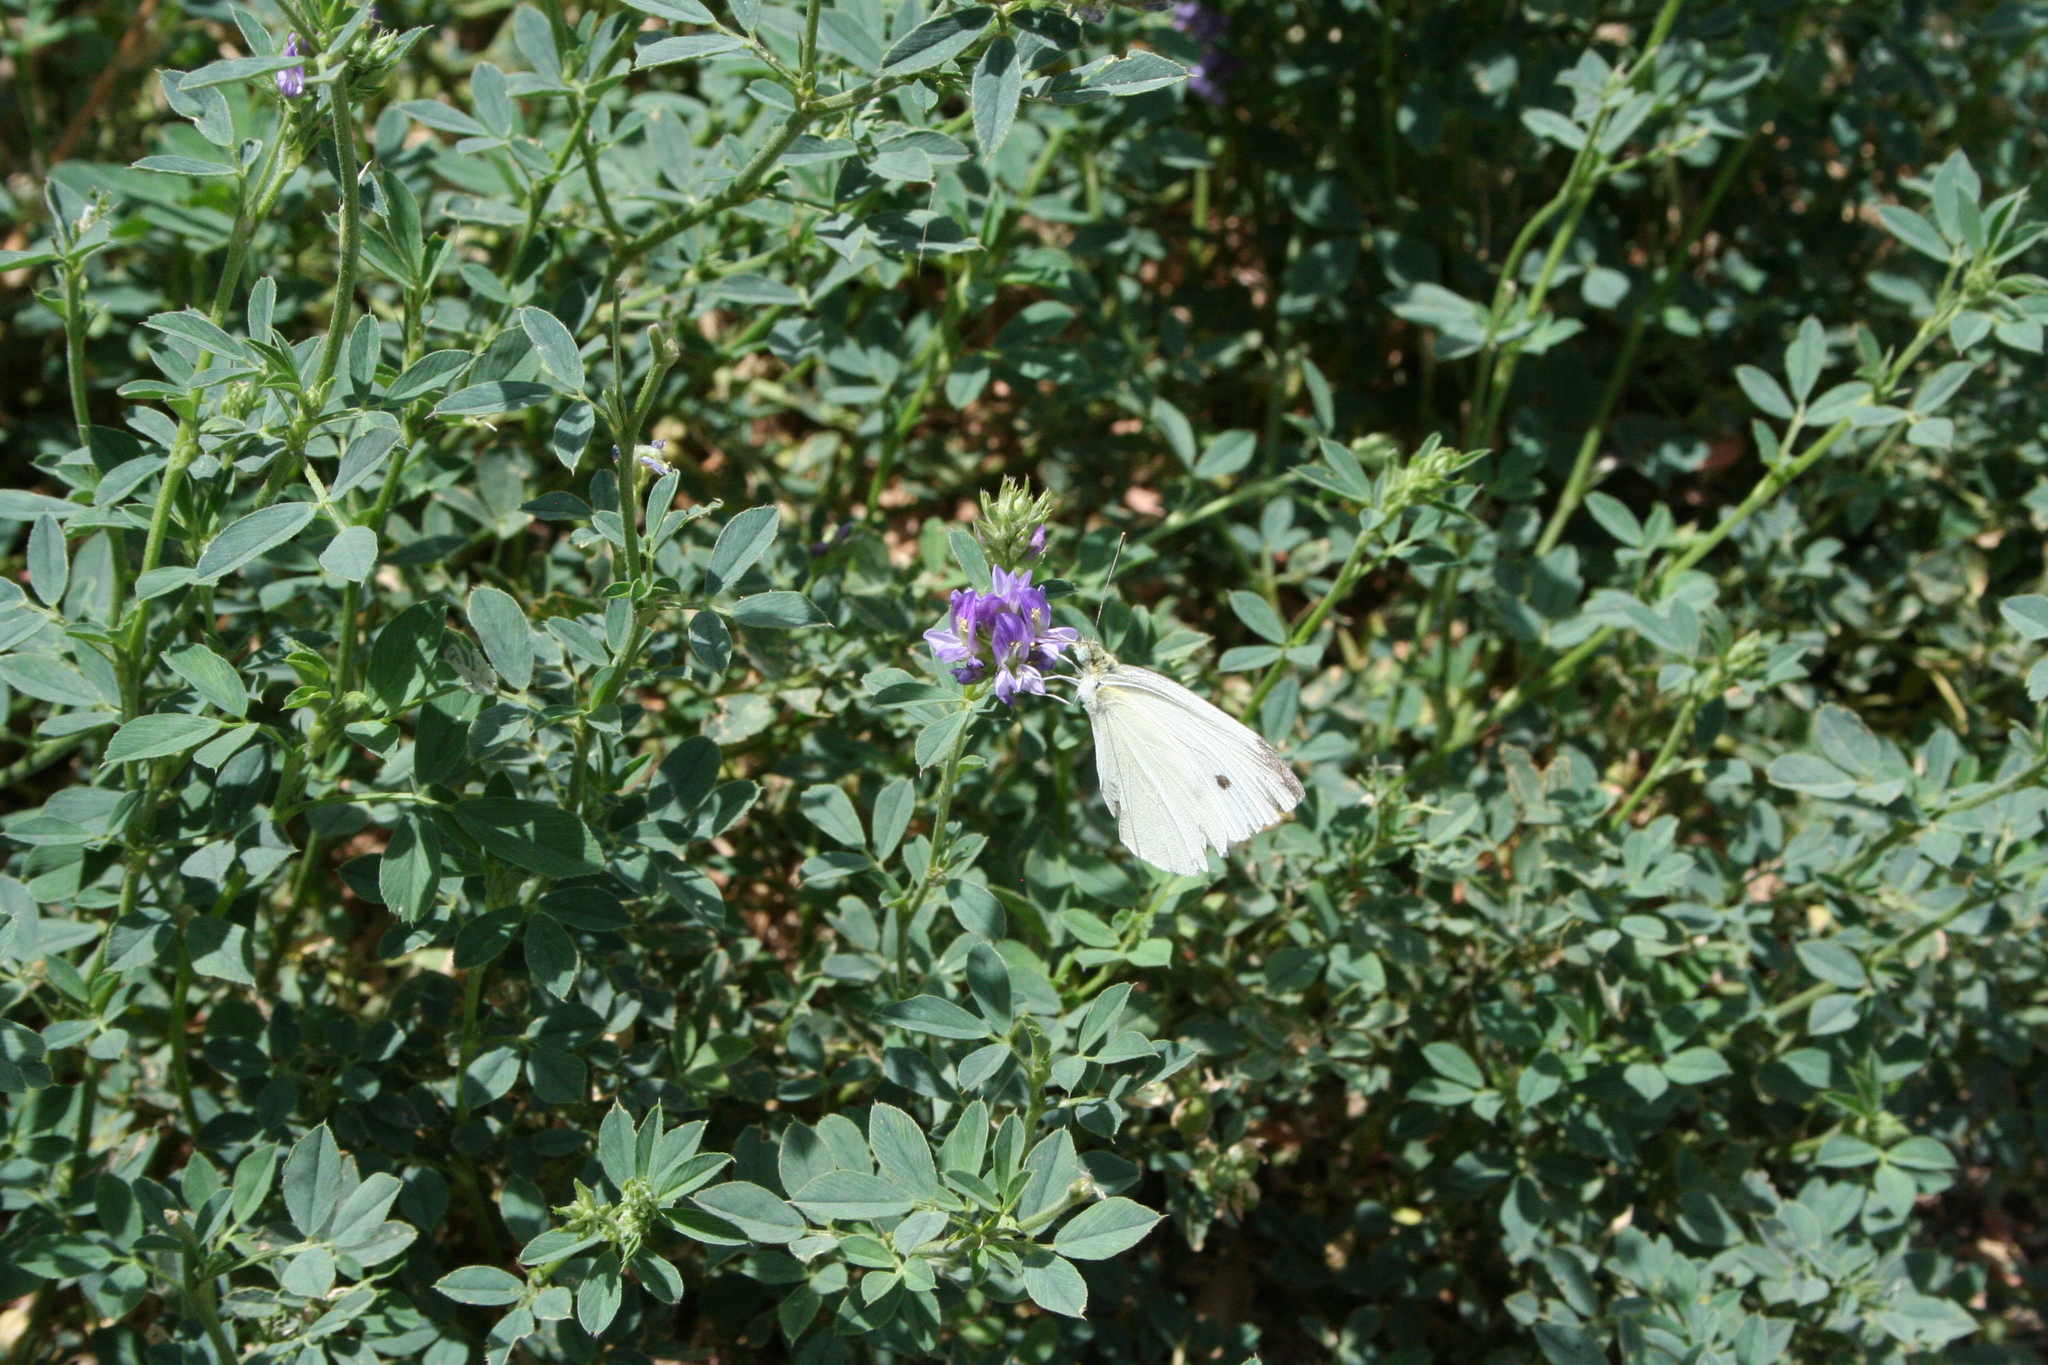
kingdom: Animalia
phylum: Arthropoda
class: Insecta
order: Lepidoptera
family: Pieridae
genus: Pieris
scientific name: Pieris rapae
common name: Small white
